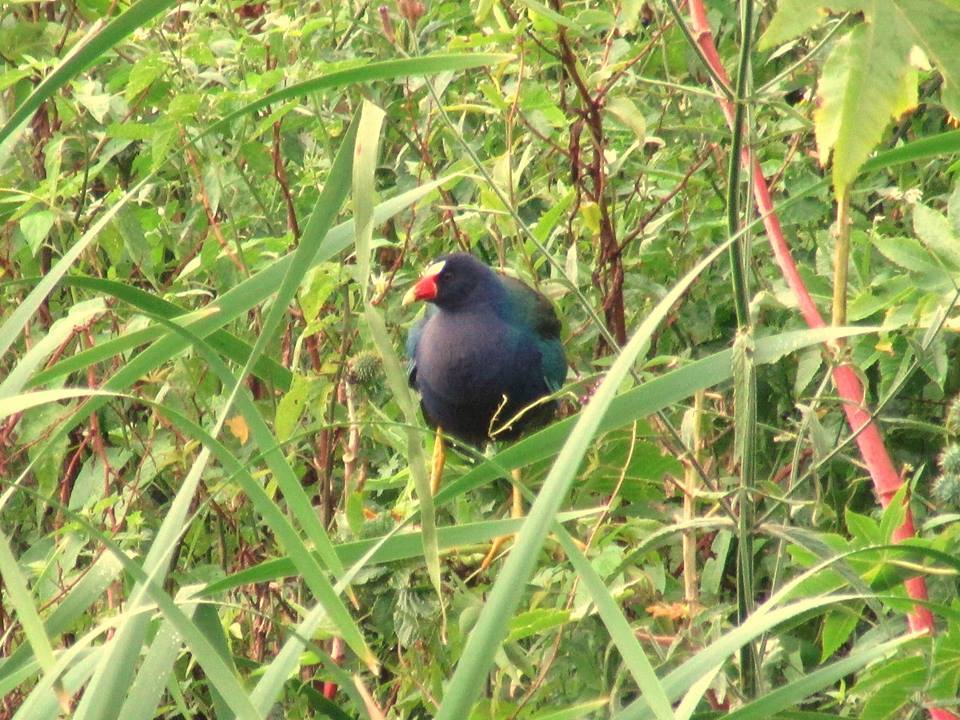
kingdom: Animalia
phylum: Chordata
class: Aves
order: Gruiformes
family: Rallidae
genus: Porphyrio
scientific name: Porphyrio martinica
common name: Purple gallinule
